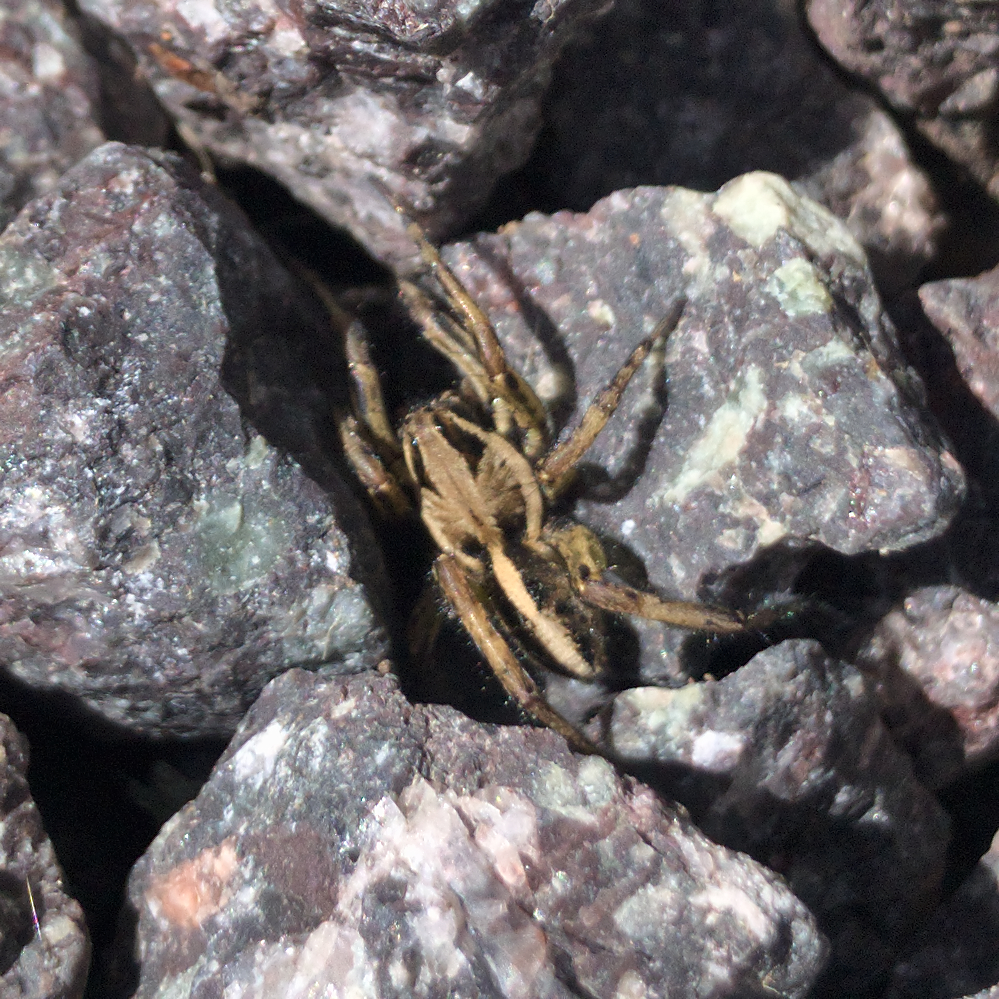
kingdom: Animalia
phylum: Arthropoda
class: Arachnida
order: Araneae
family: Lycosidae
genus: Artoriopsis
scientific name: Artoriopsis expolita
